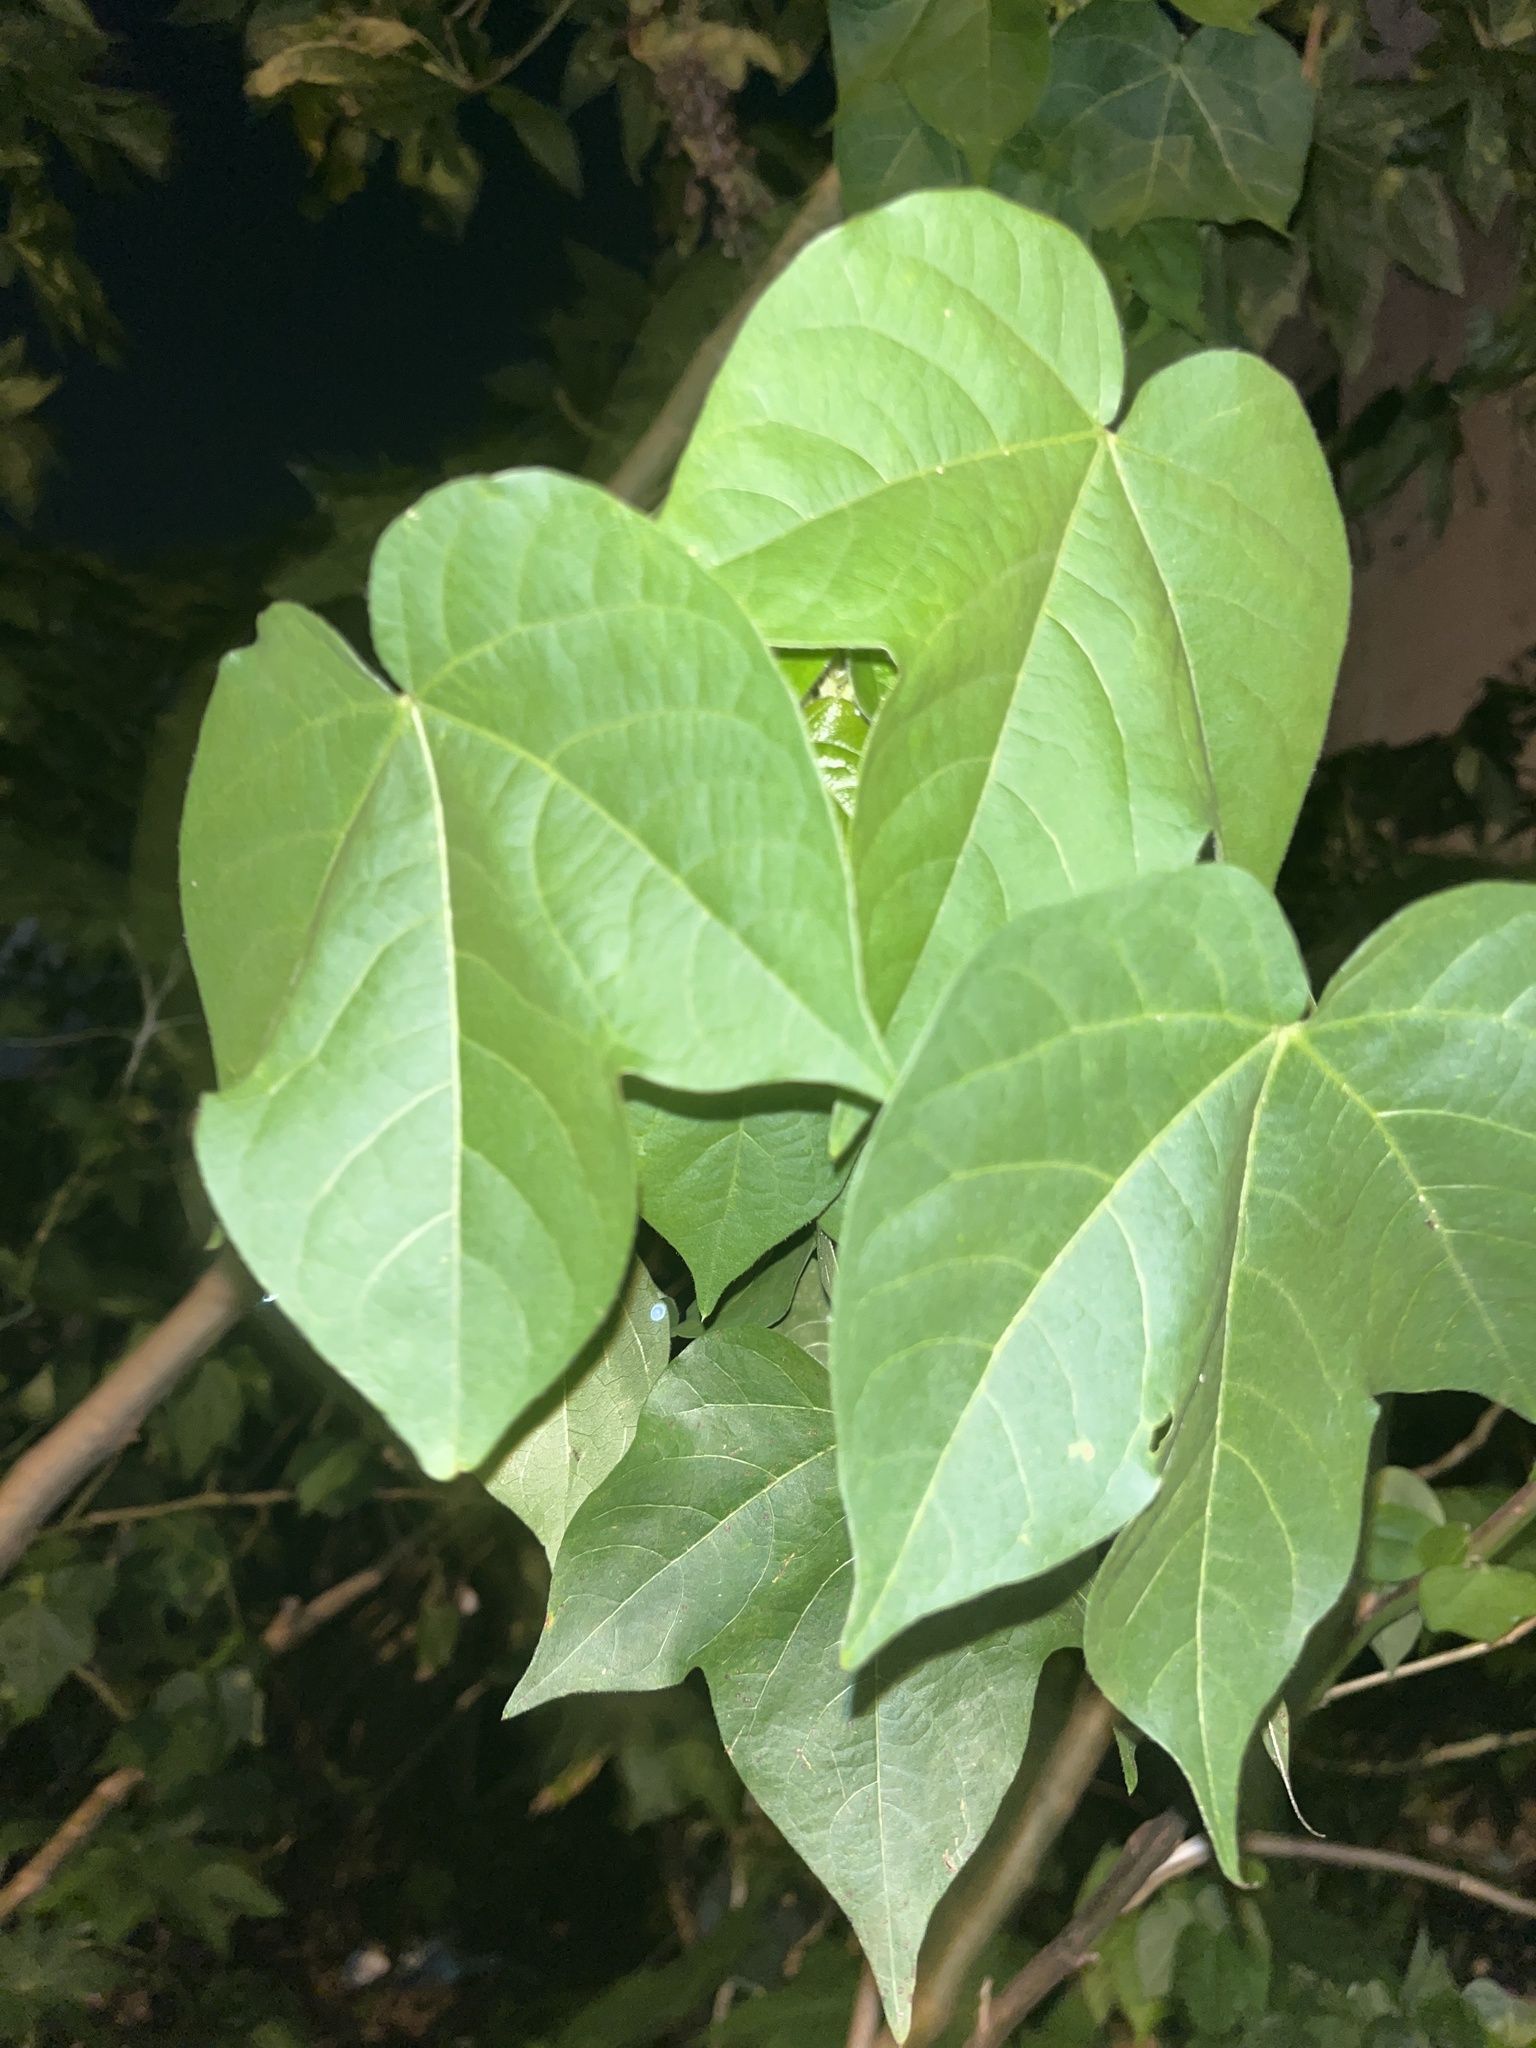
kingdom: Plantae
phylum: Tracheophyta
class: Magnoliopsida
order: Malvales
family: Malvaceae
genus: Gossypium
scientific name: Gossypium hirsutum
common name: Cotton
